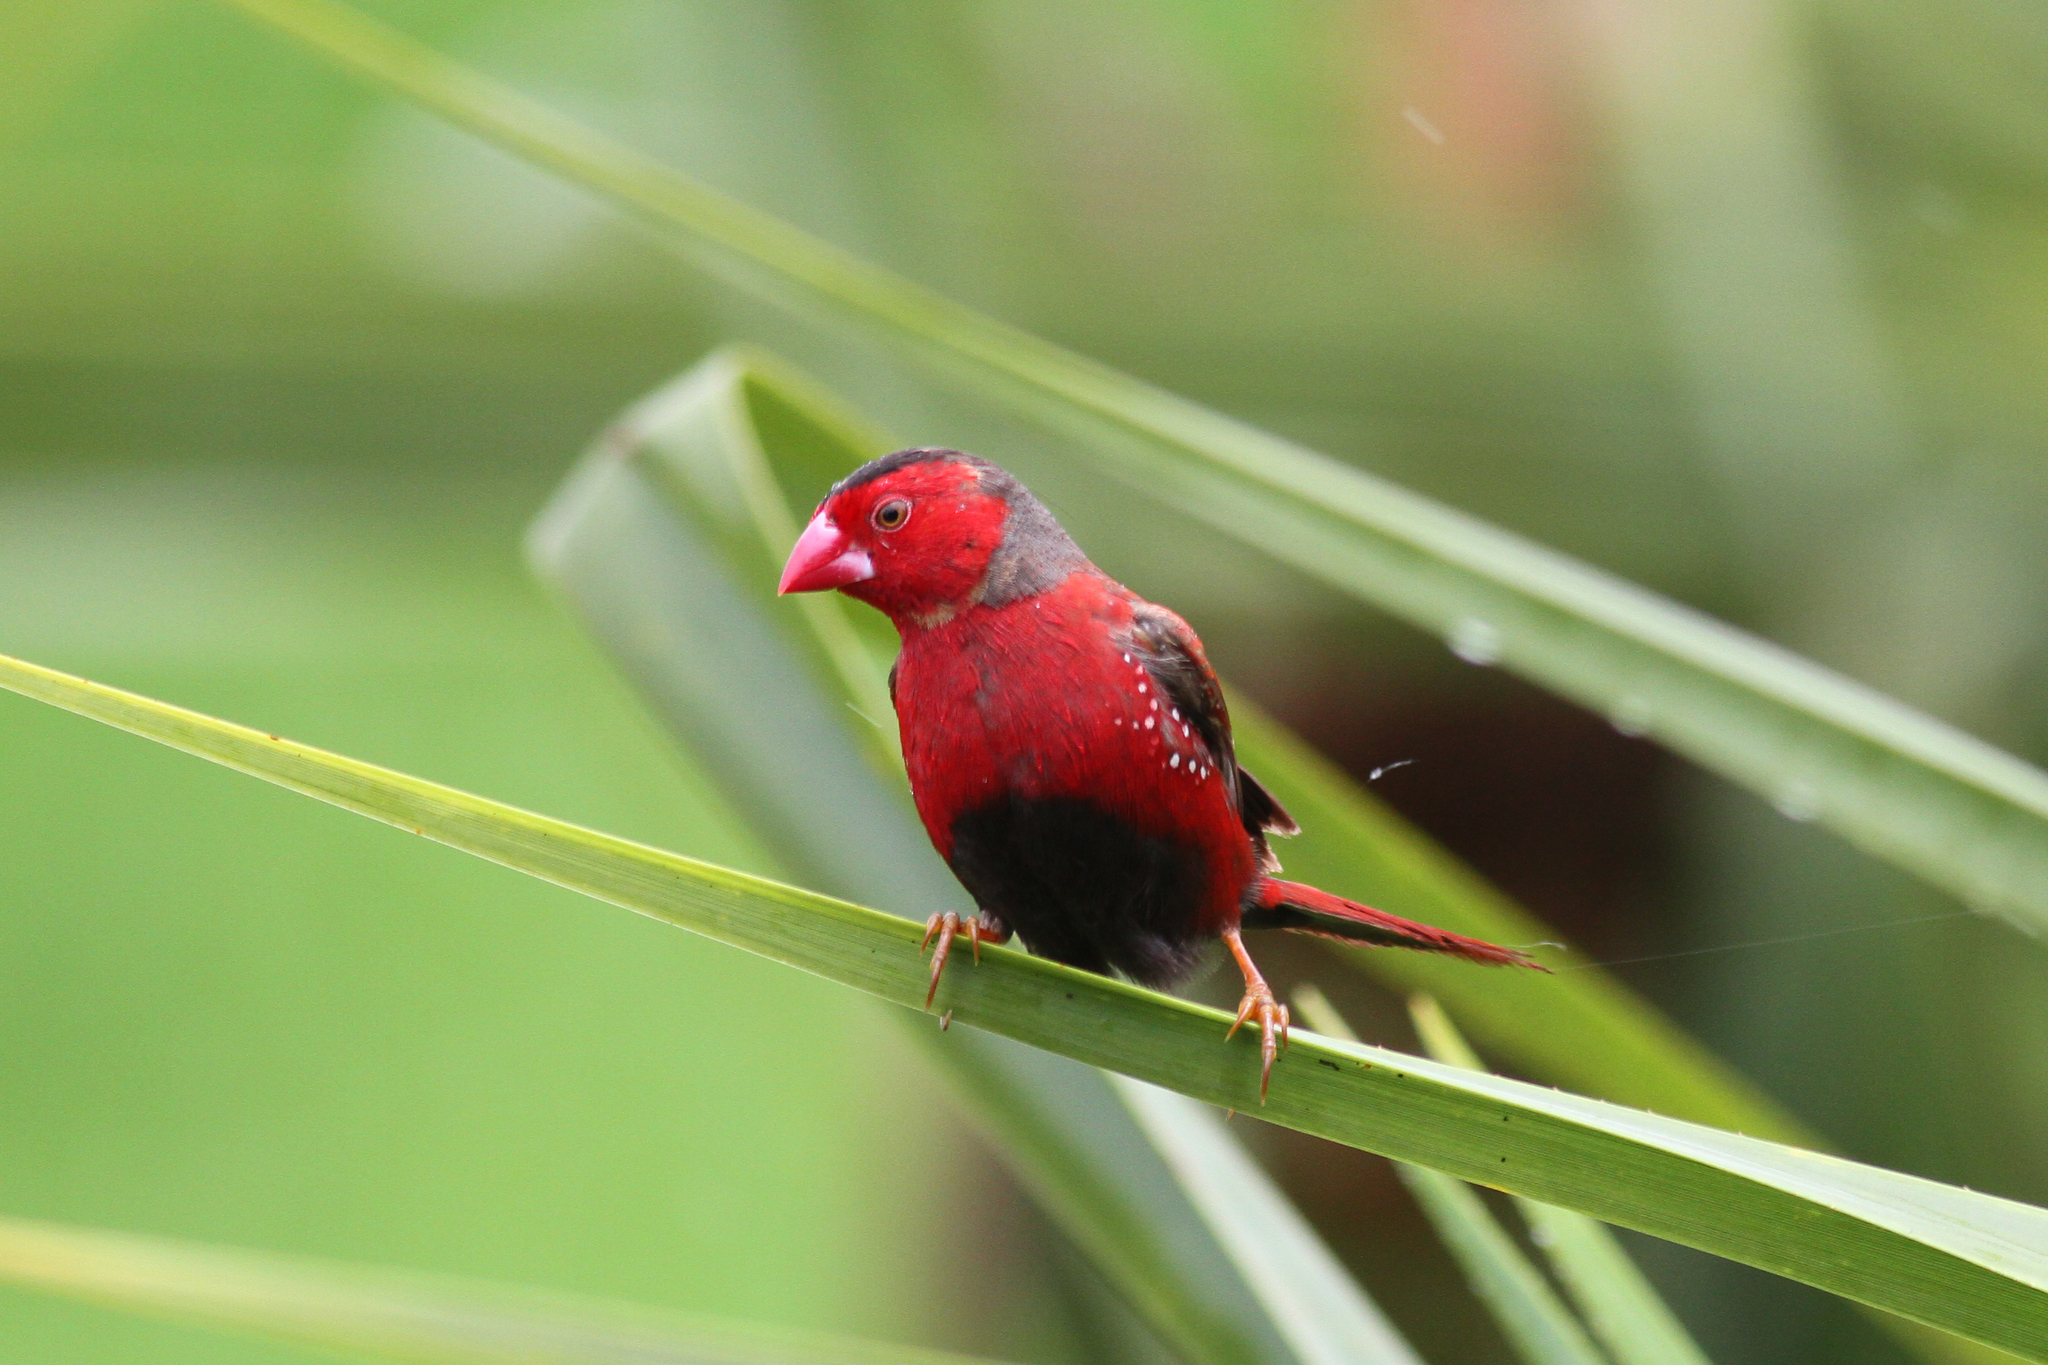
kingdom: Animalia
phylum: Chordata
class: Aves
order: Passeriformes
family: Estrildidae
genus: Neochmia
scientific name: Neochmia phaeton
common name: Crimson finch
